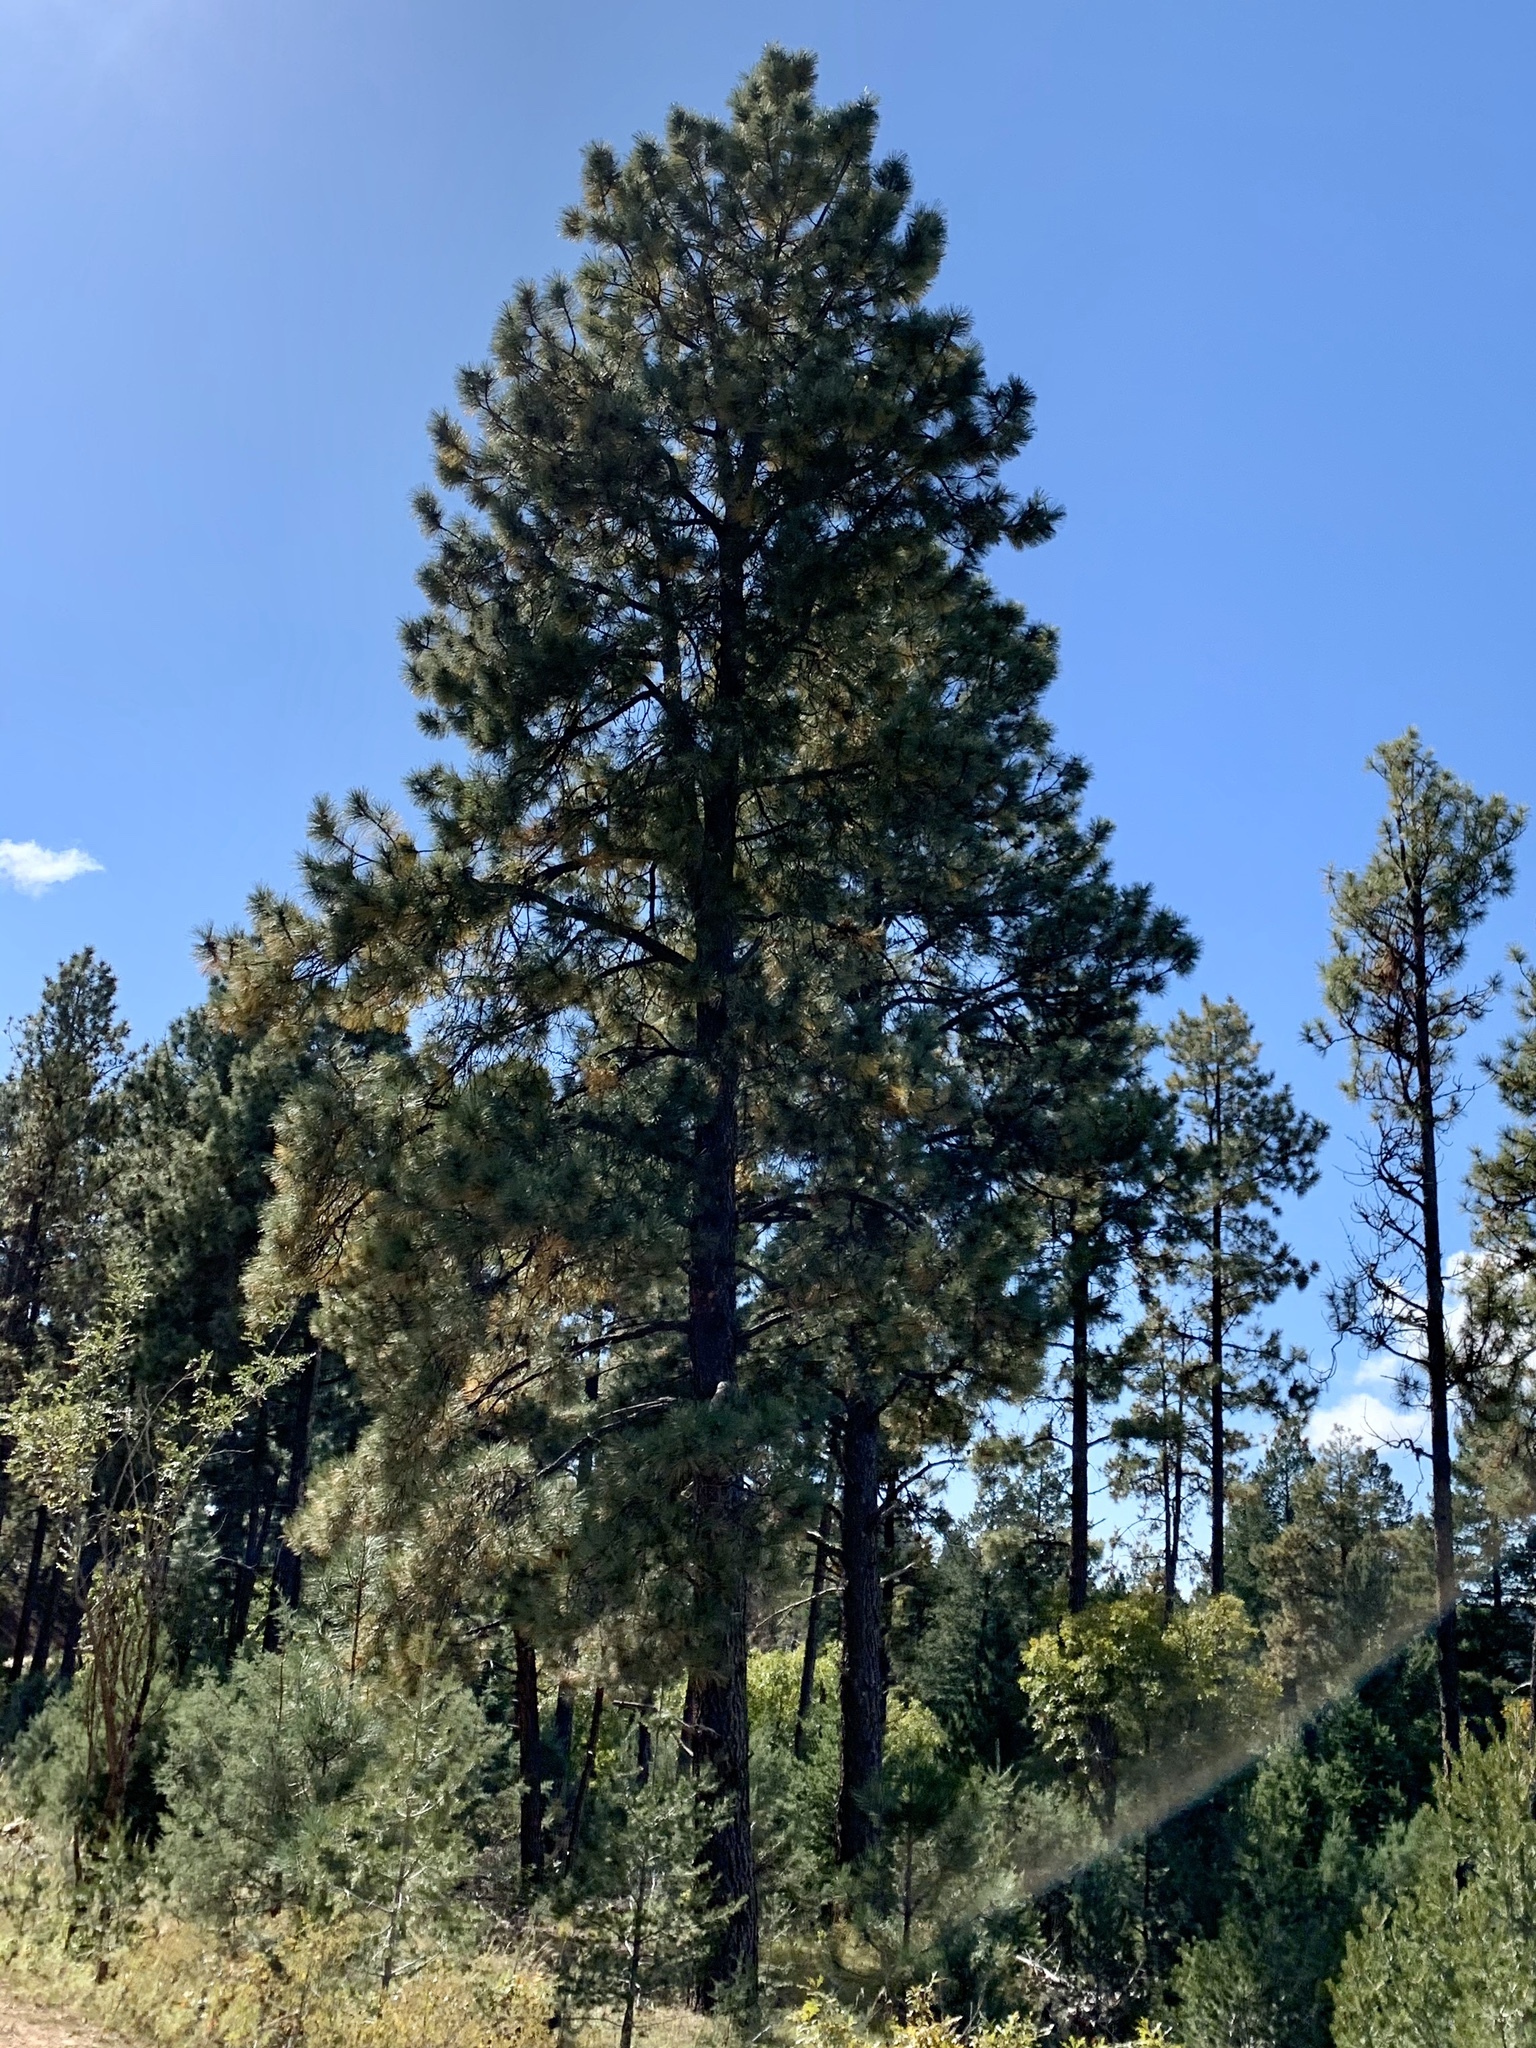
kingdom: Plantae
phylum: Tracheophyta
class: Pinopsida
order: Pinales
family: Pinaceae
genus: Pinus
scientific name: Pinus ponderosa
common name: Western yellow-pine
